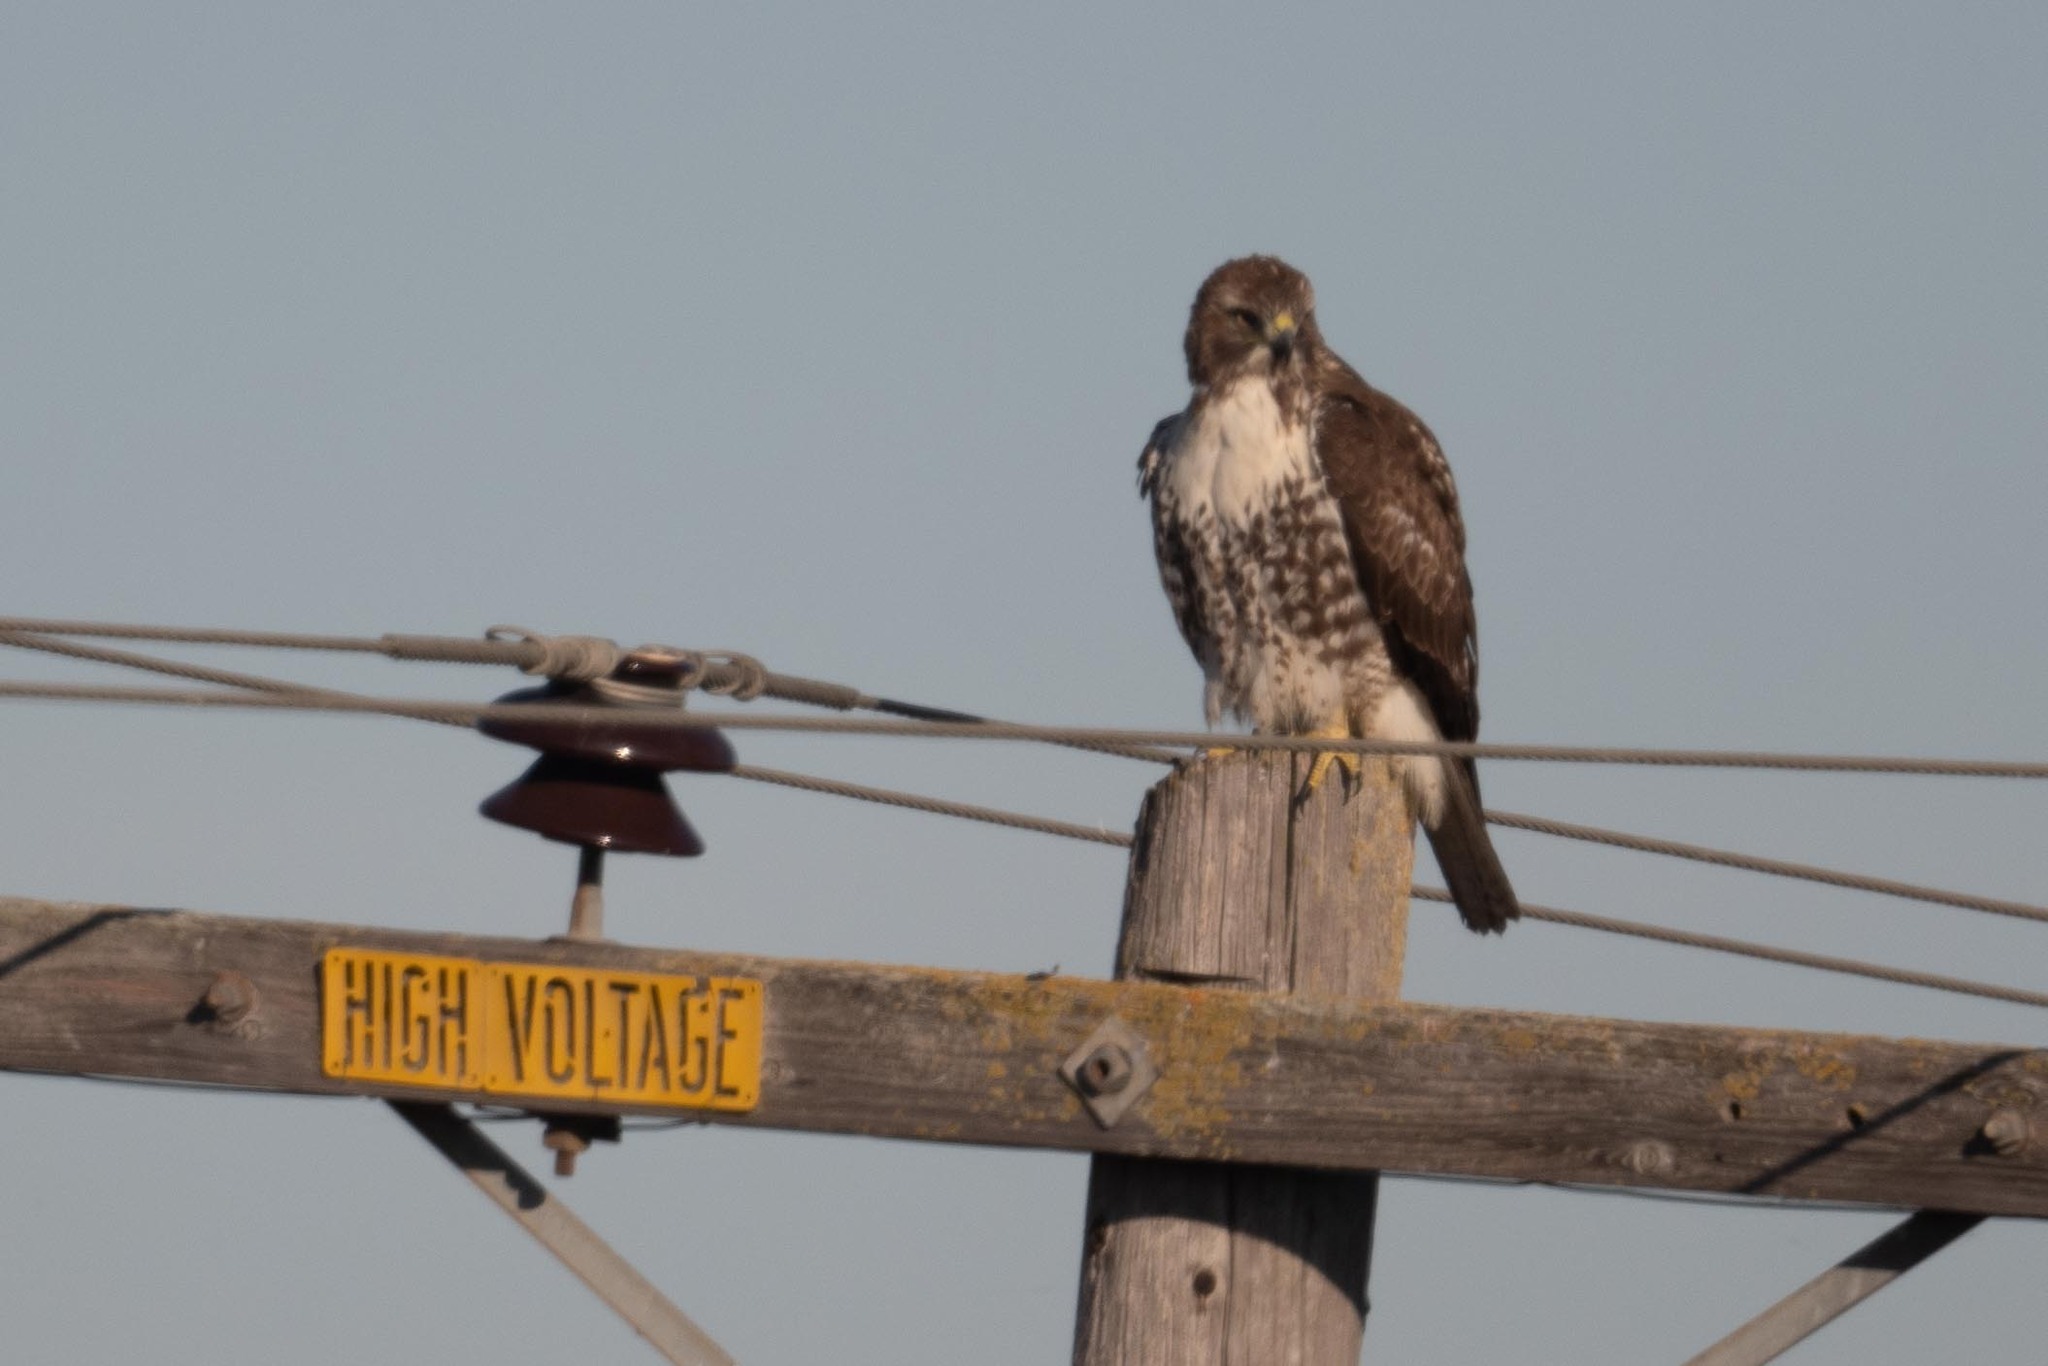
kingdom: Animalia
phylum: Chordata
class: Aves
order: Accipitriformes
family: Accipitridae
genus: Buteo
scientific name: Buteo jamaicensis
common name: Red-tailed hawk
